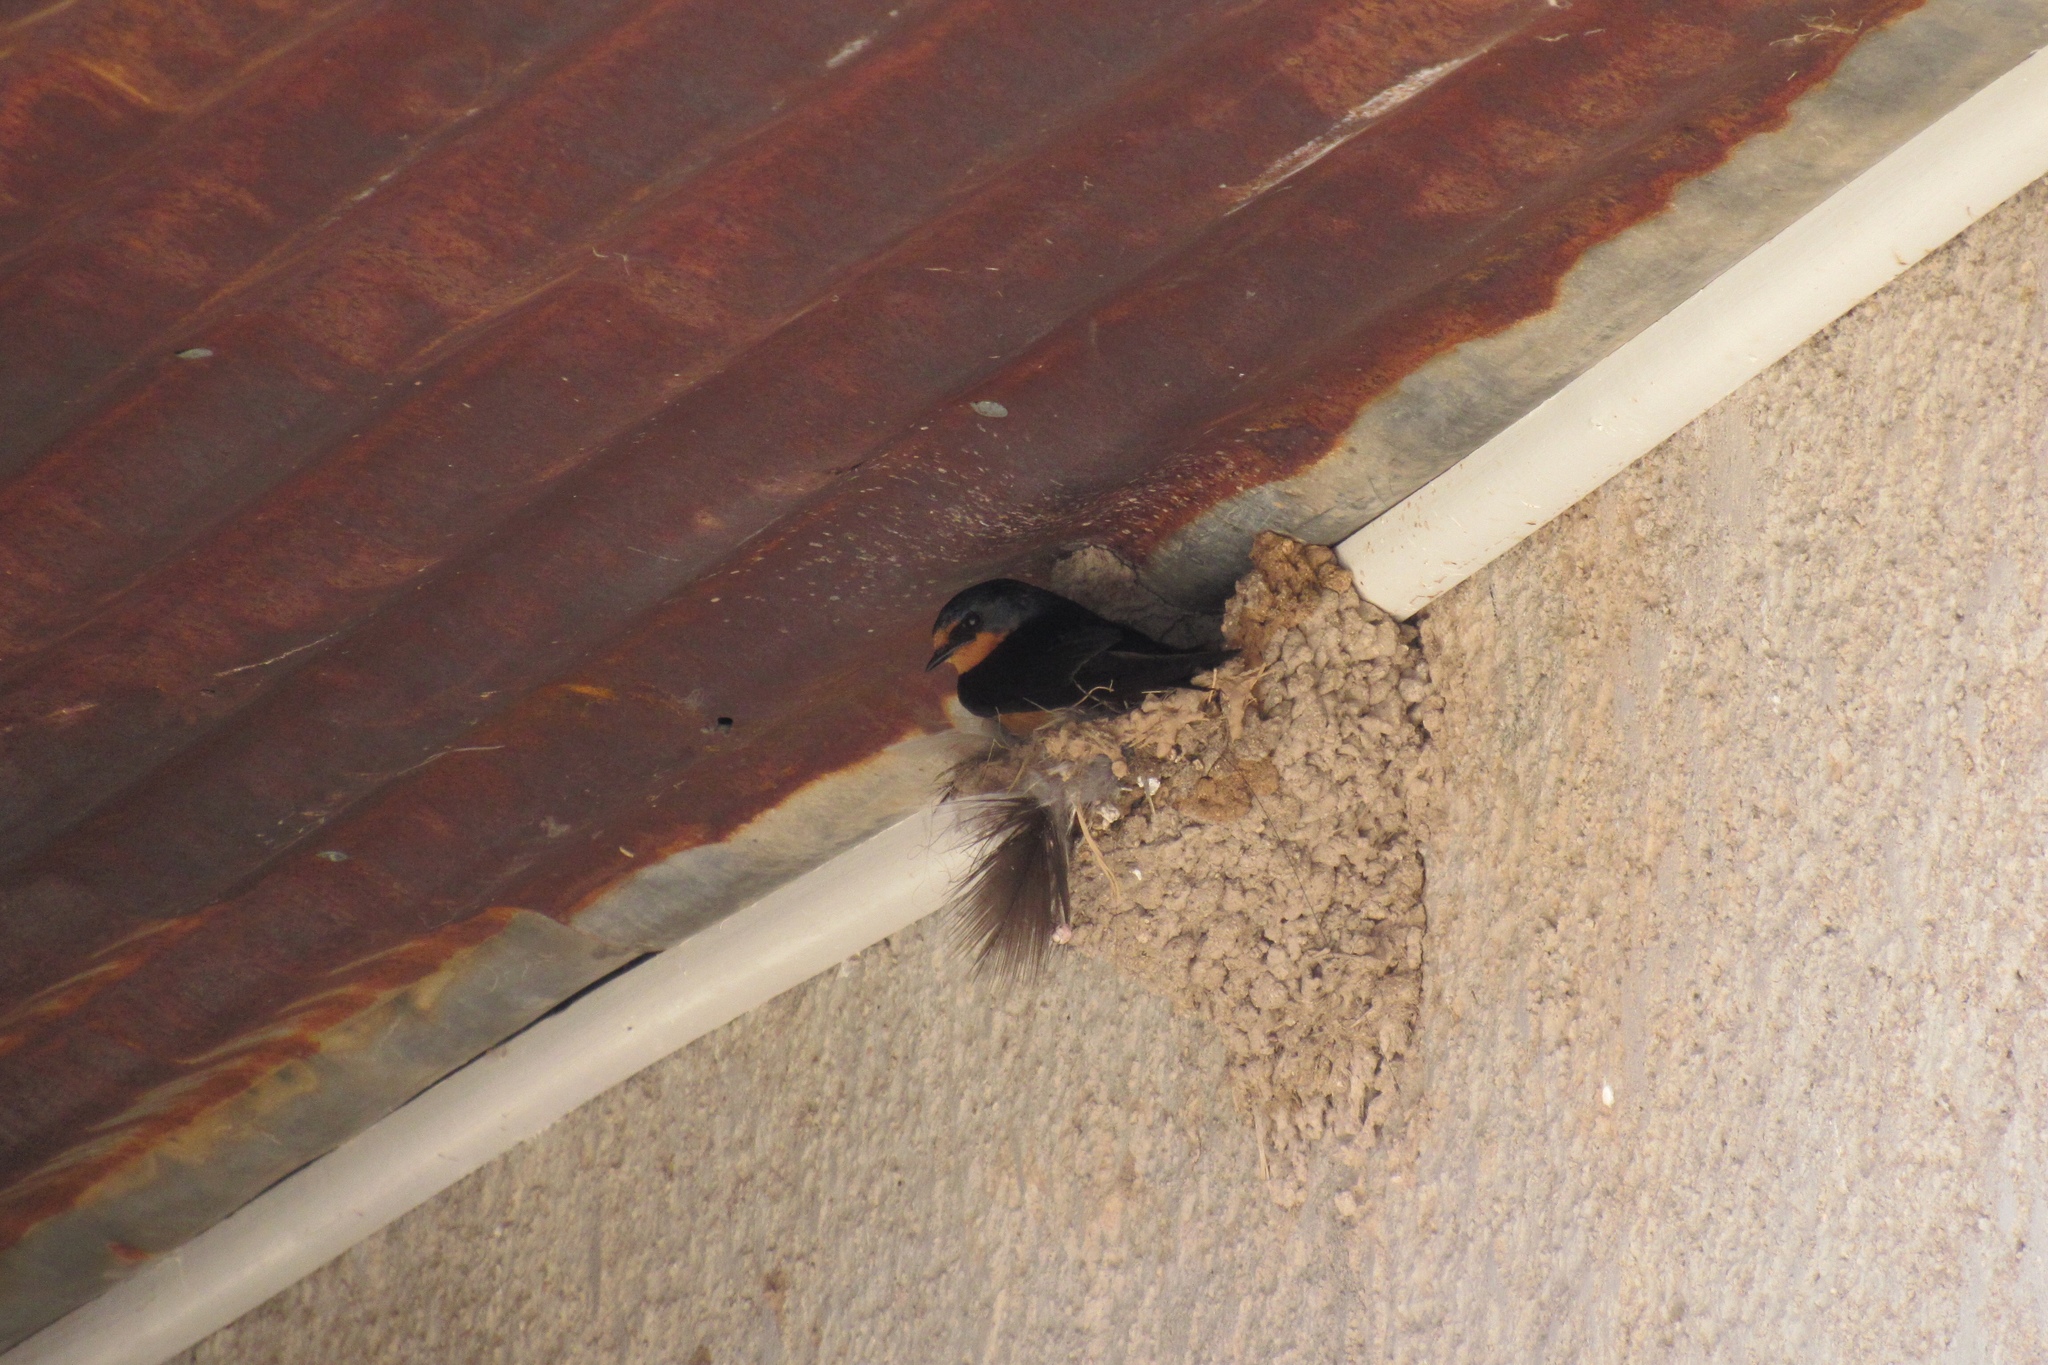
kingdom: Animalia
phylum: Chordata
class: Aves
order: Passeriformes
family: Hirundinidae
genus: Hirundo
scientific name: Hirundo rustica
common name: Barn swallow
